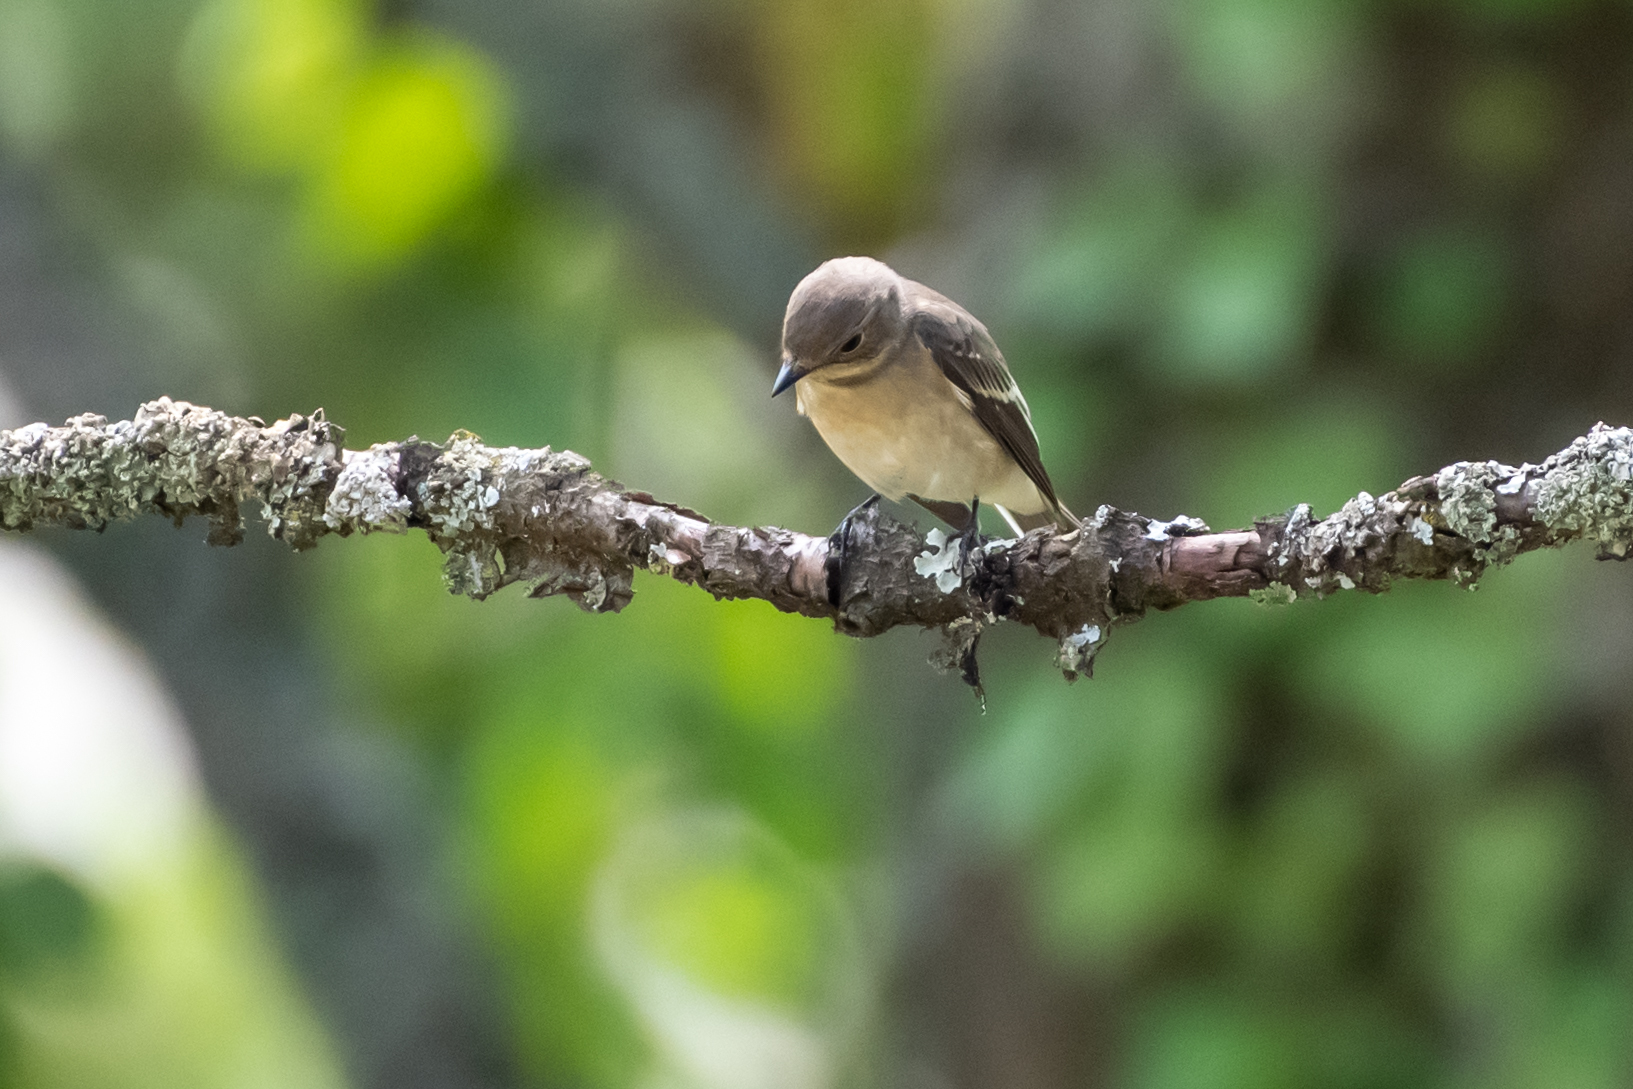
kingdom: Animalia
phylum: Chordata
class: Aves
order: Passeriformes
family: Muscicapidae
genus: Ficedula
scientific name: Ficedula hypoleuca
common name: European pied flycatcher
